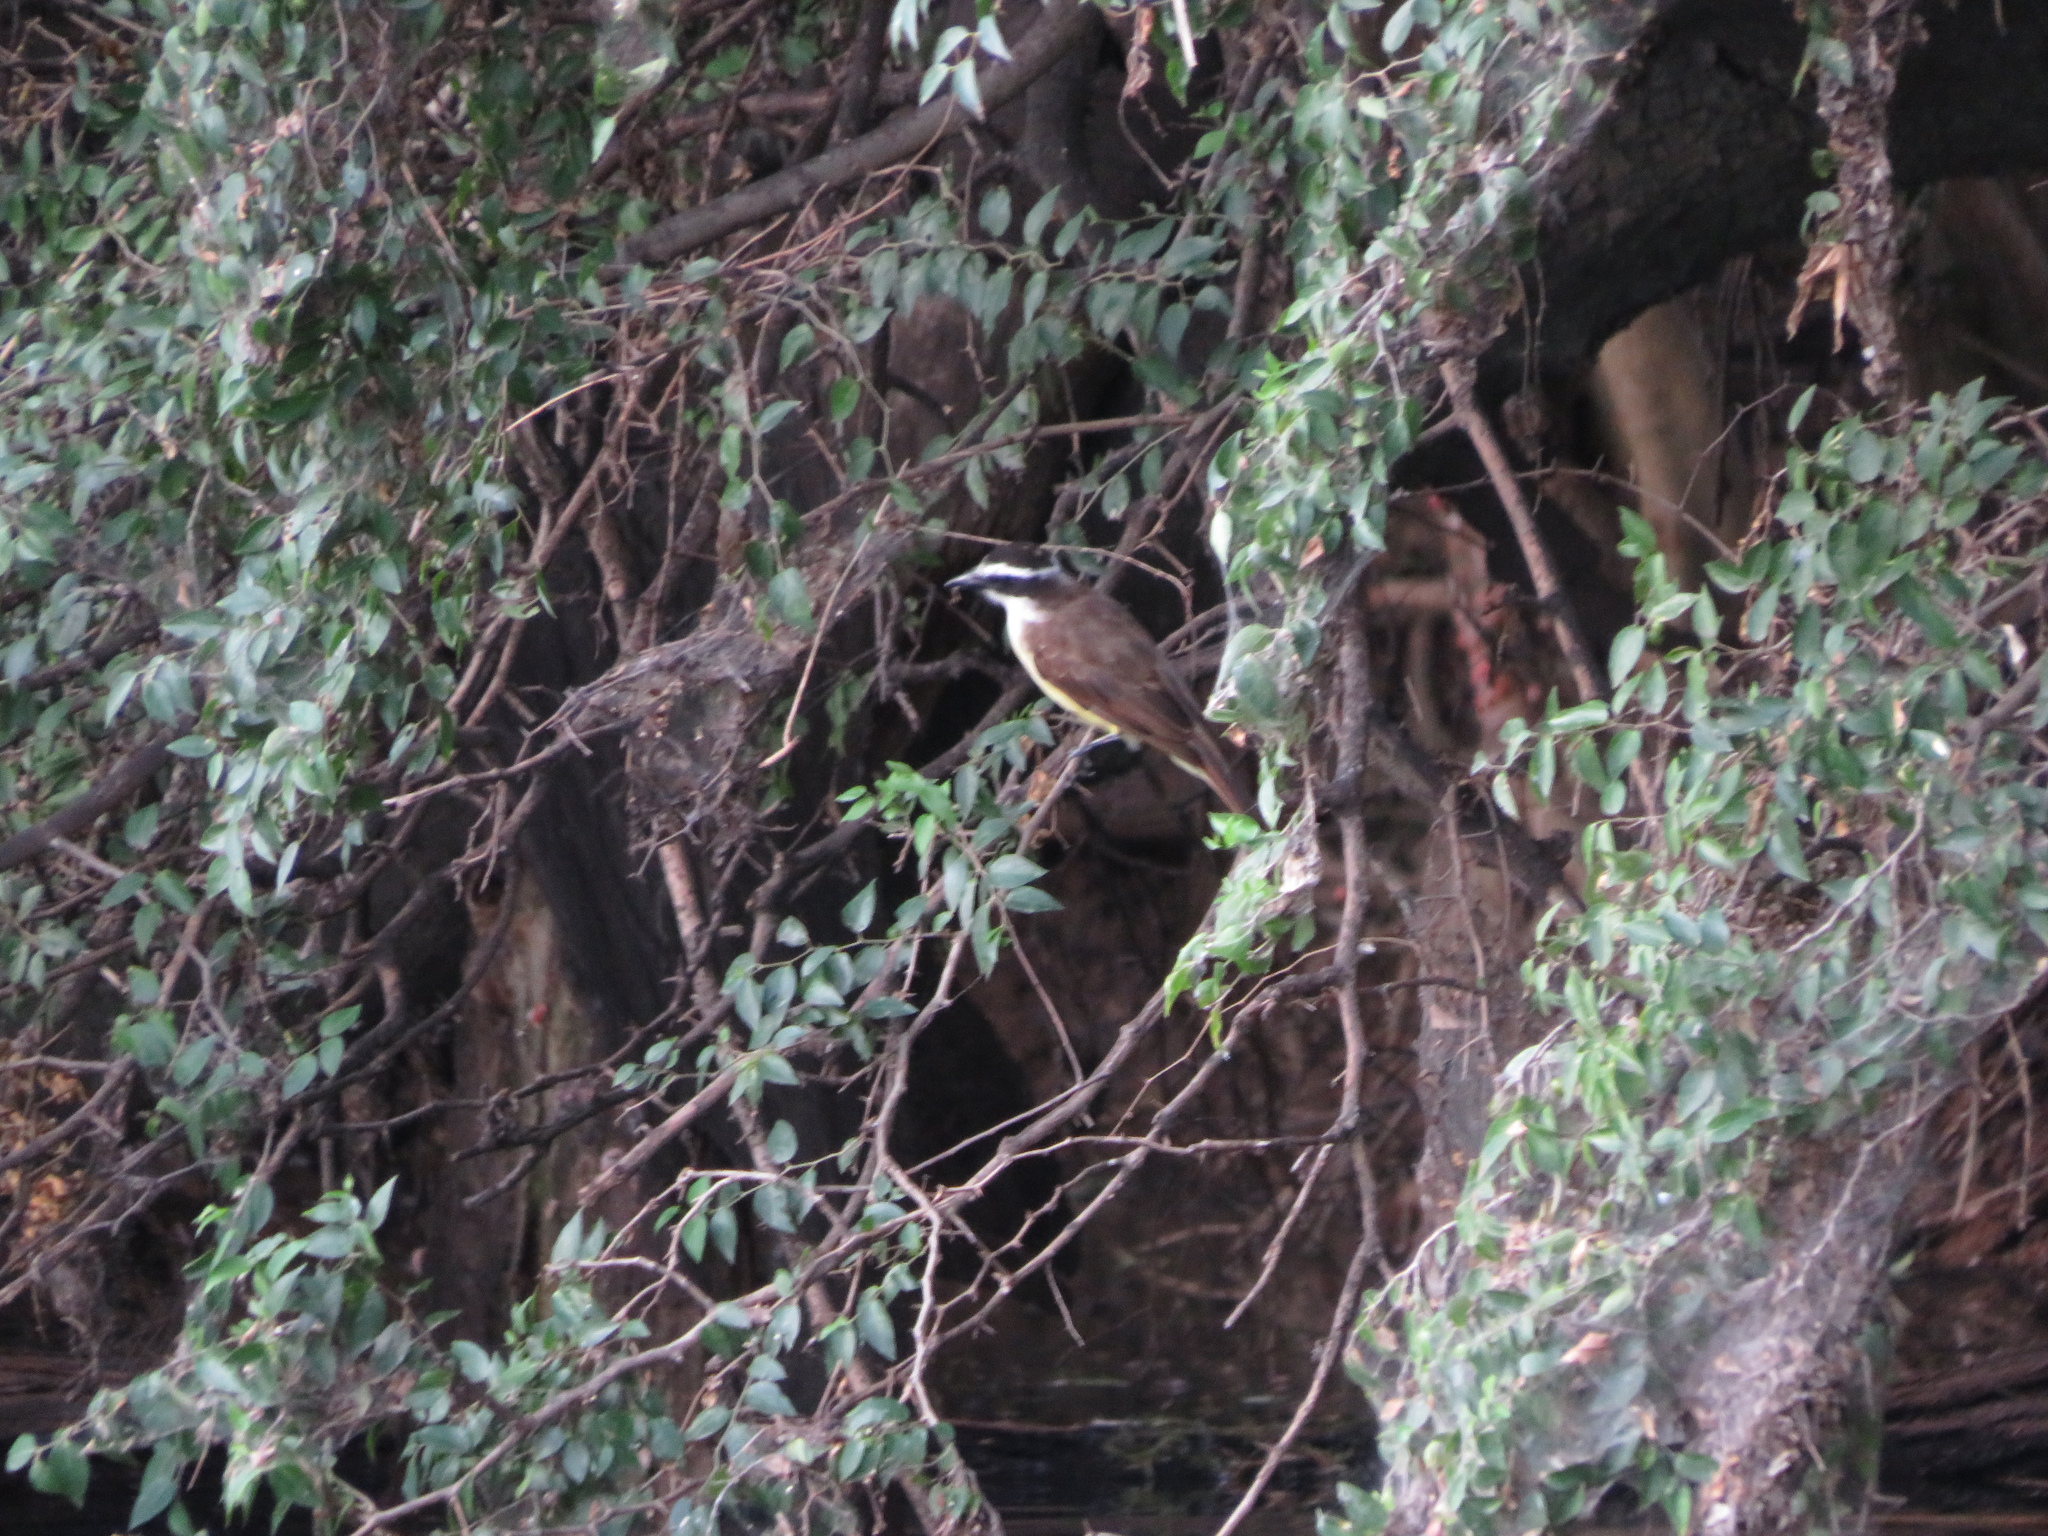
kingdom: Animalia
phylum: Chordata
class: Aves
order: Passeriformes
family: Tyrannidae
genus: Pitangus
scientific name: Pitangus sulphuratus
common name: Great kiskadee
